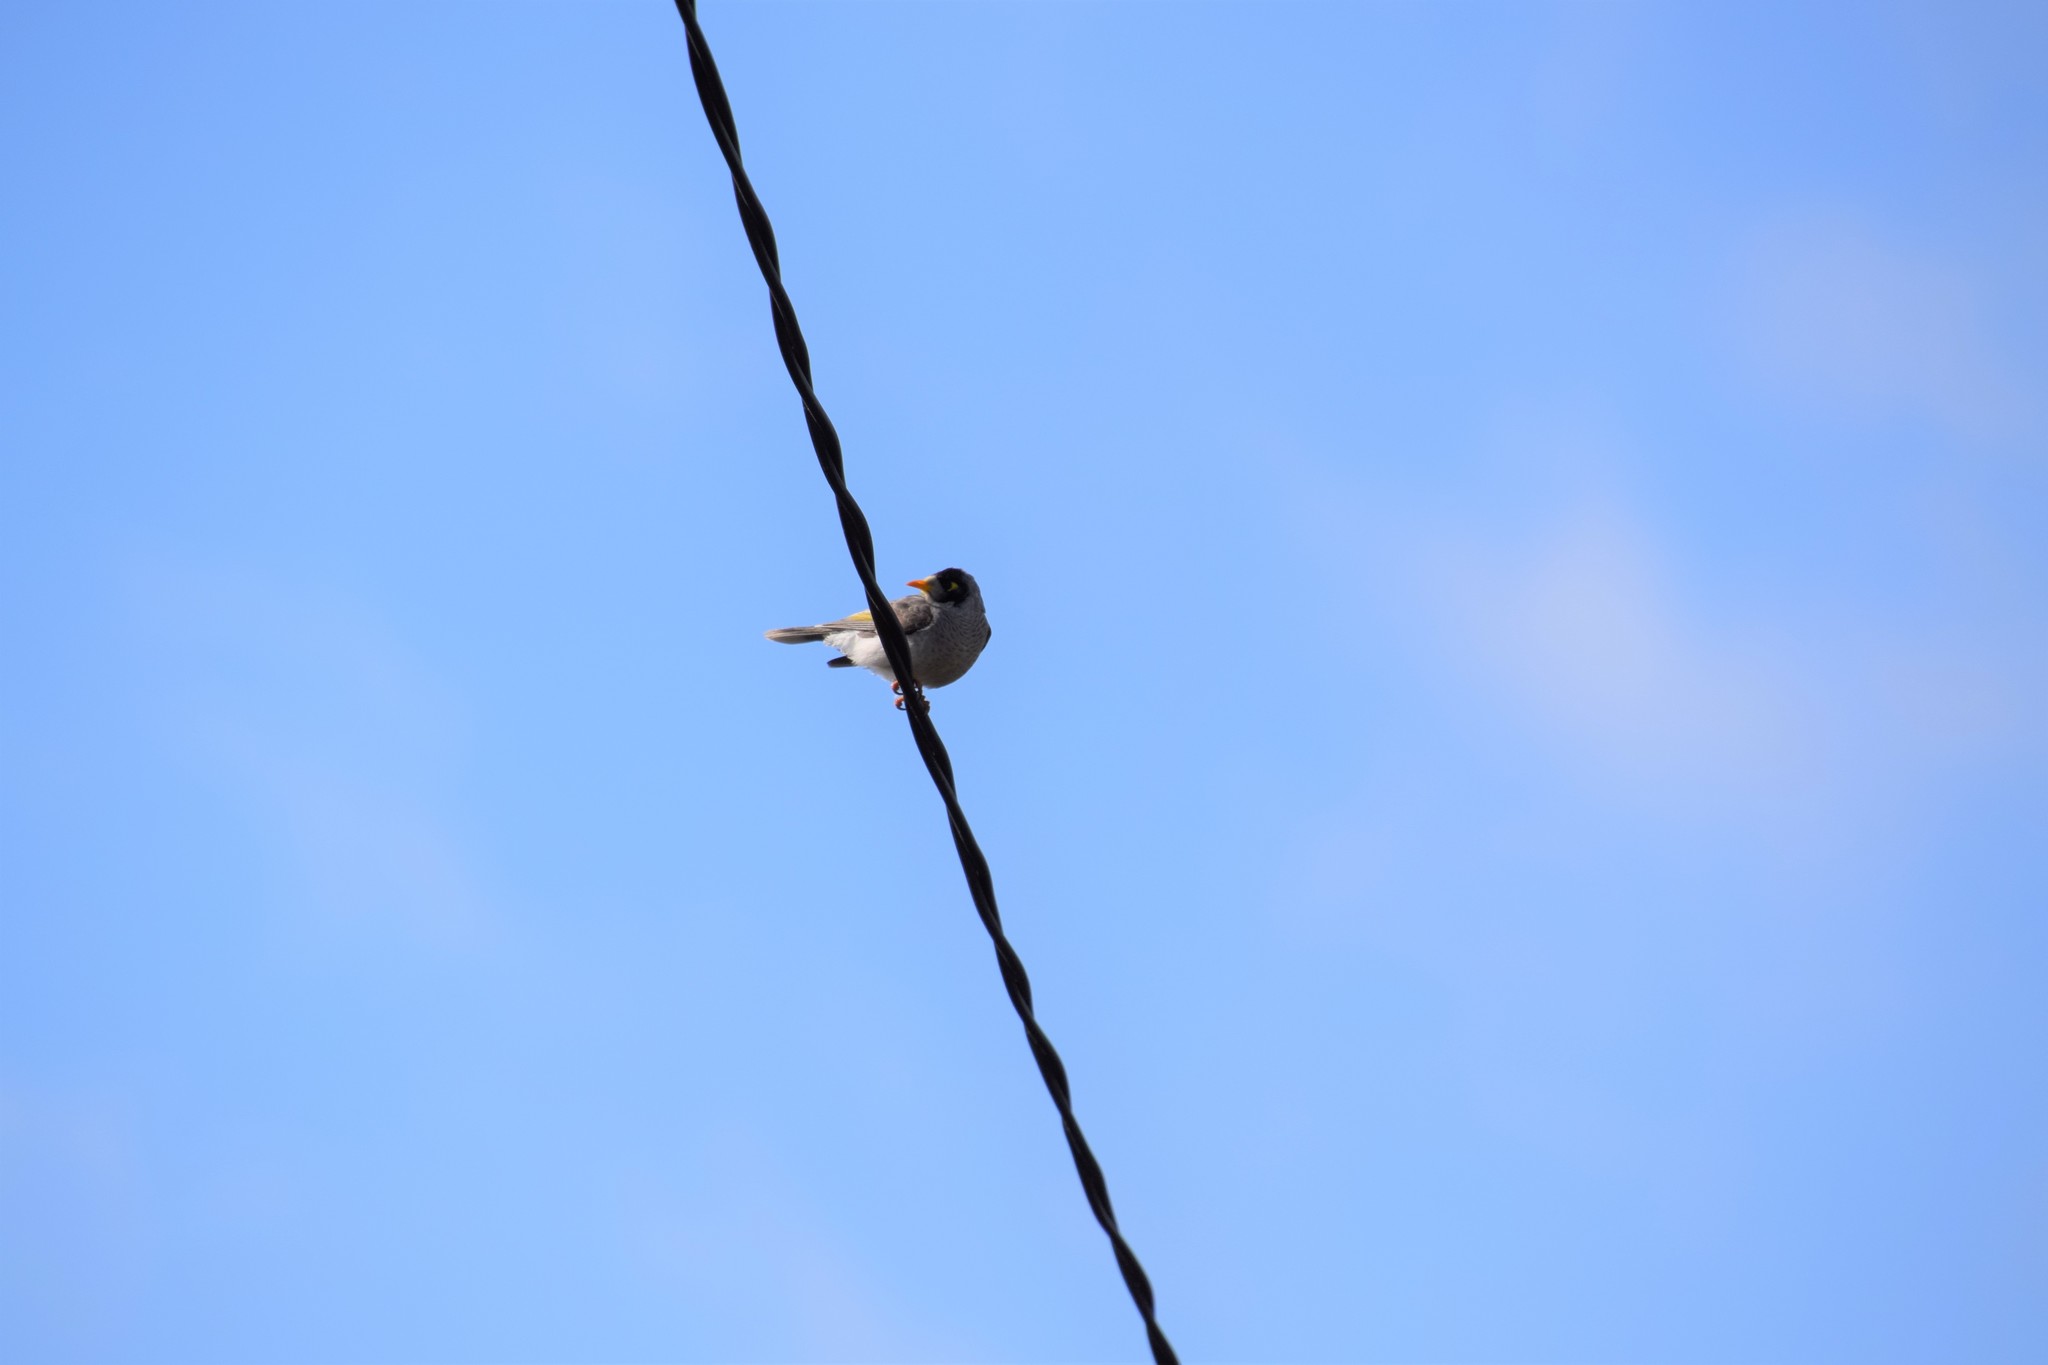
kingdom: Animalia
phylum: Chordata
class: Aves
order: Passeriformes
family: Meliphagidae
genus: Manorina
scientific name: Manorina melanocephala
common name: Noisy miner
